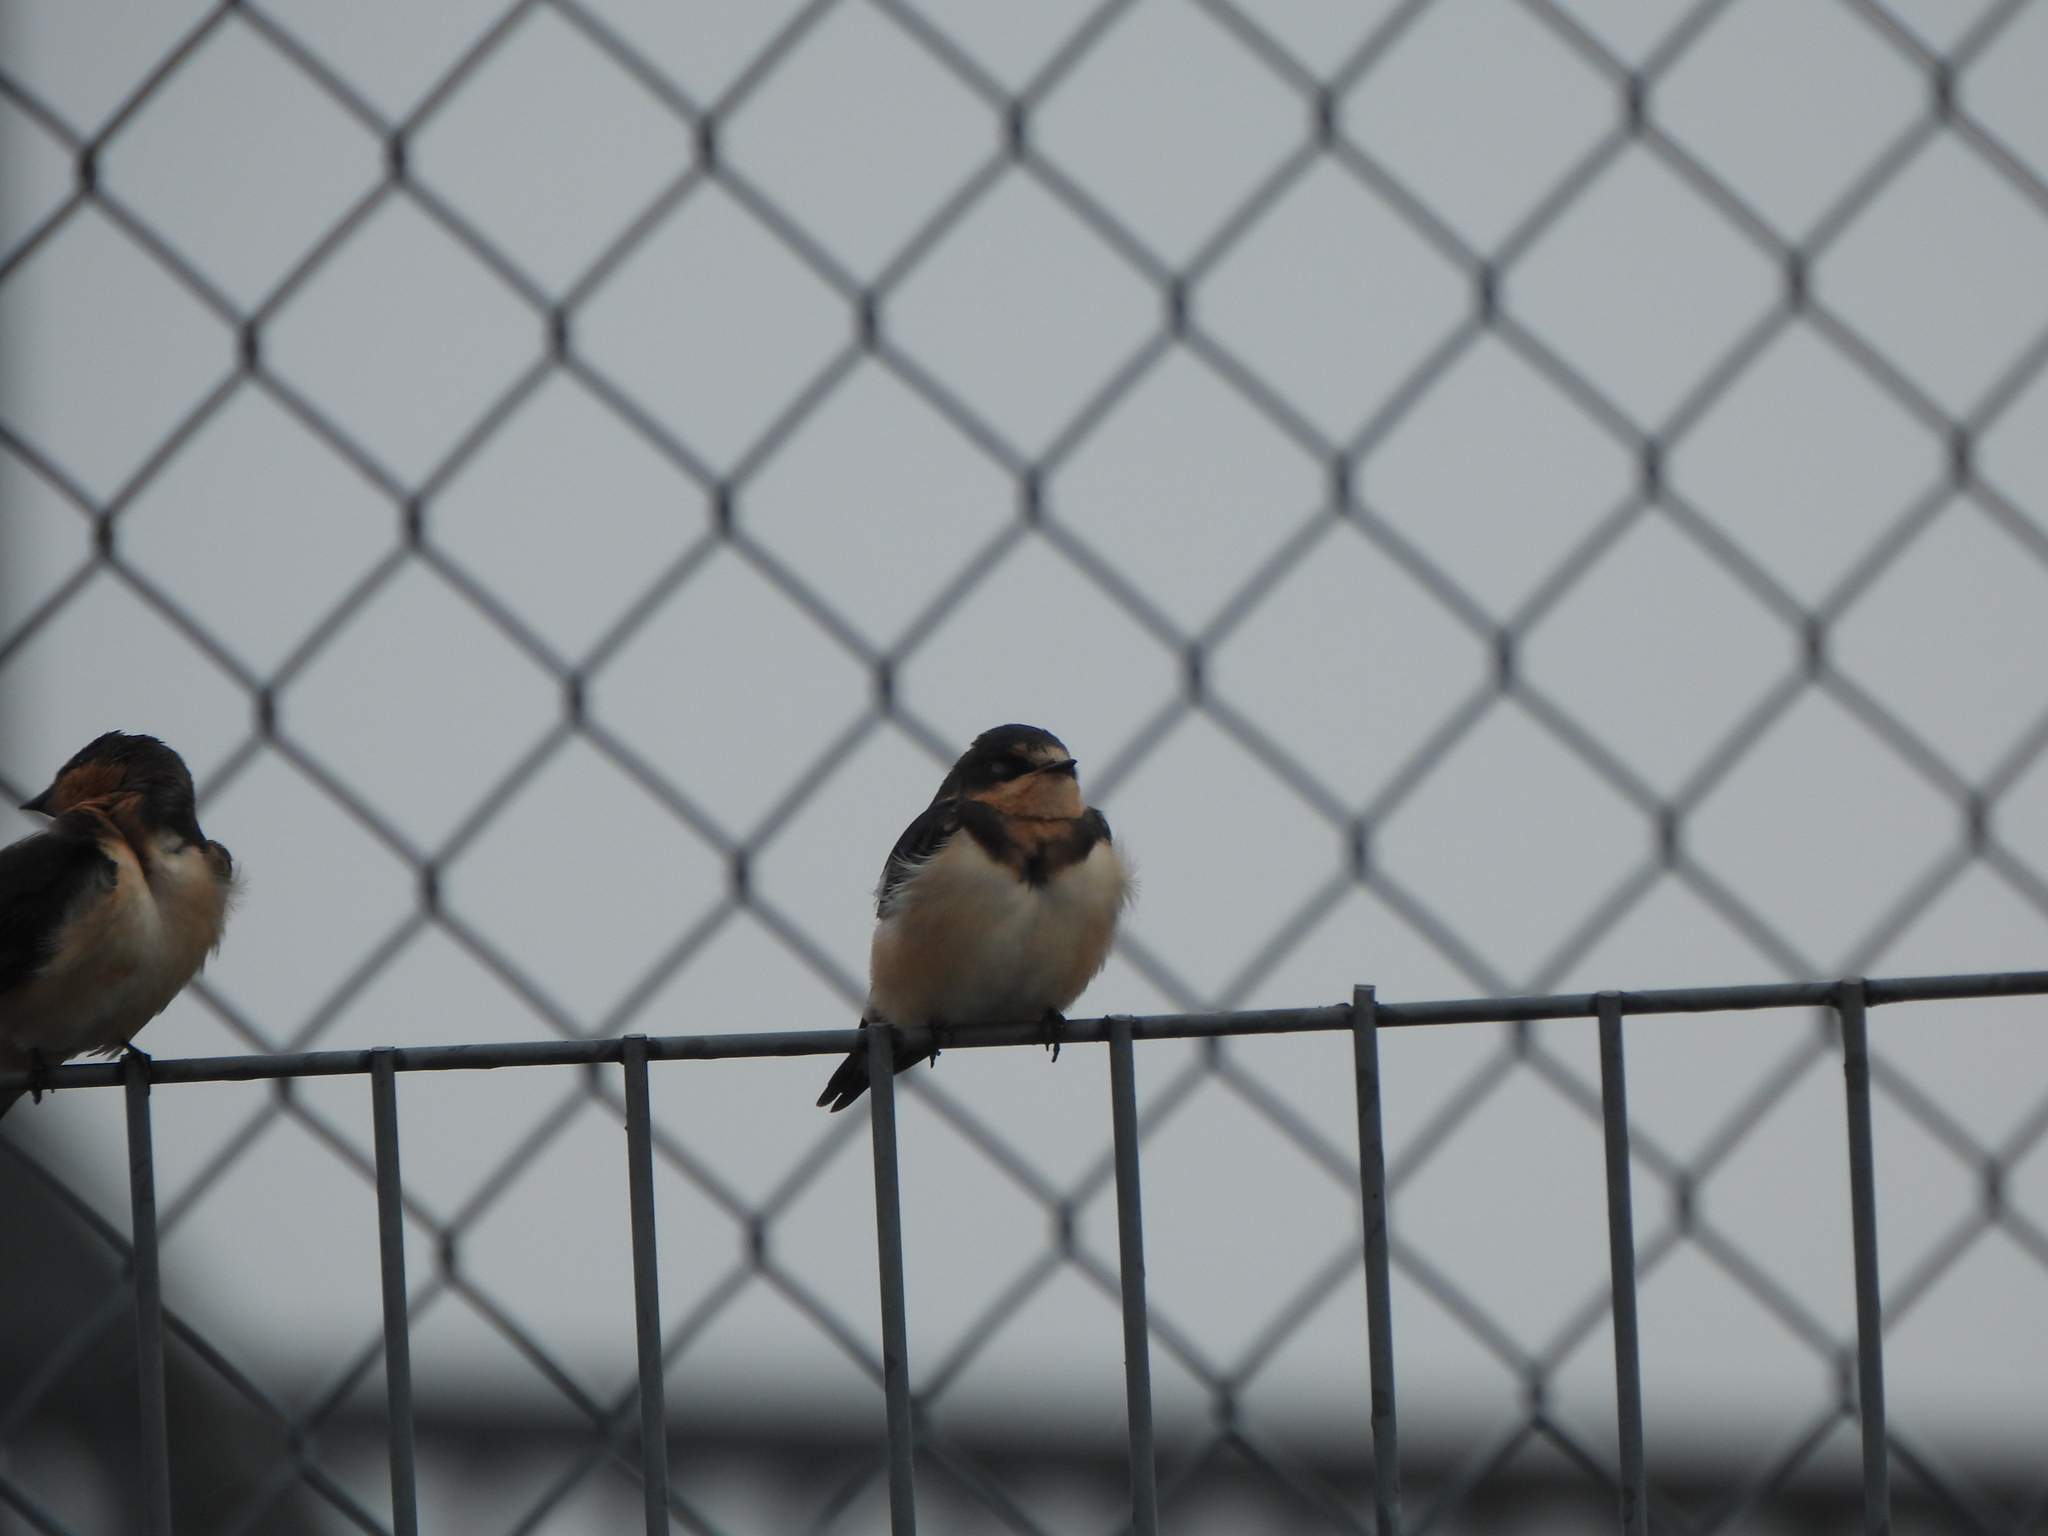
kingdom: Animalia
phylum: Chordata
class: Aves
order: Passeriformes
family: Hirundinidae
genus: Hirundo
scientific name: Hirundo rustica
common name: Barn swallow
